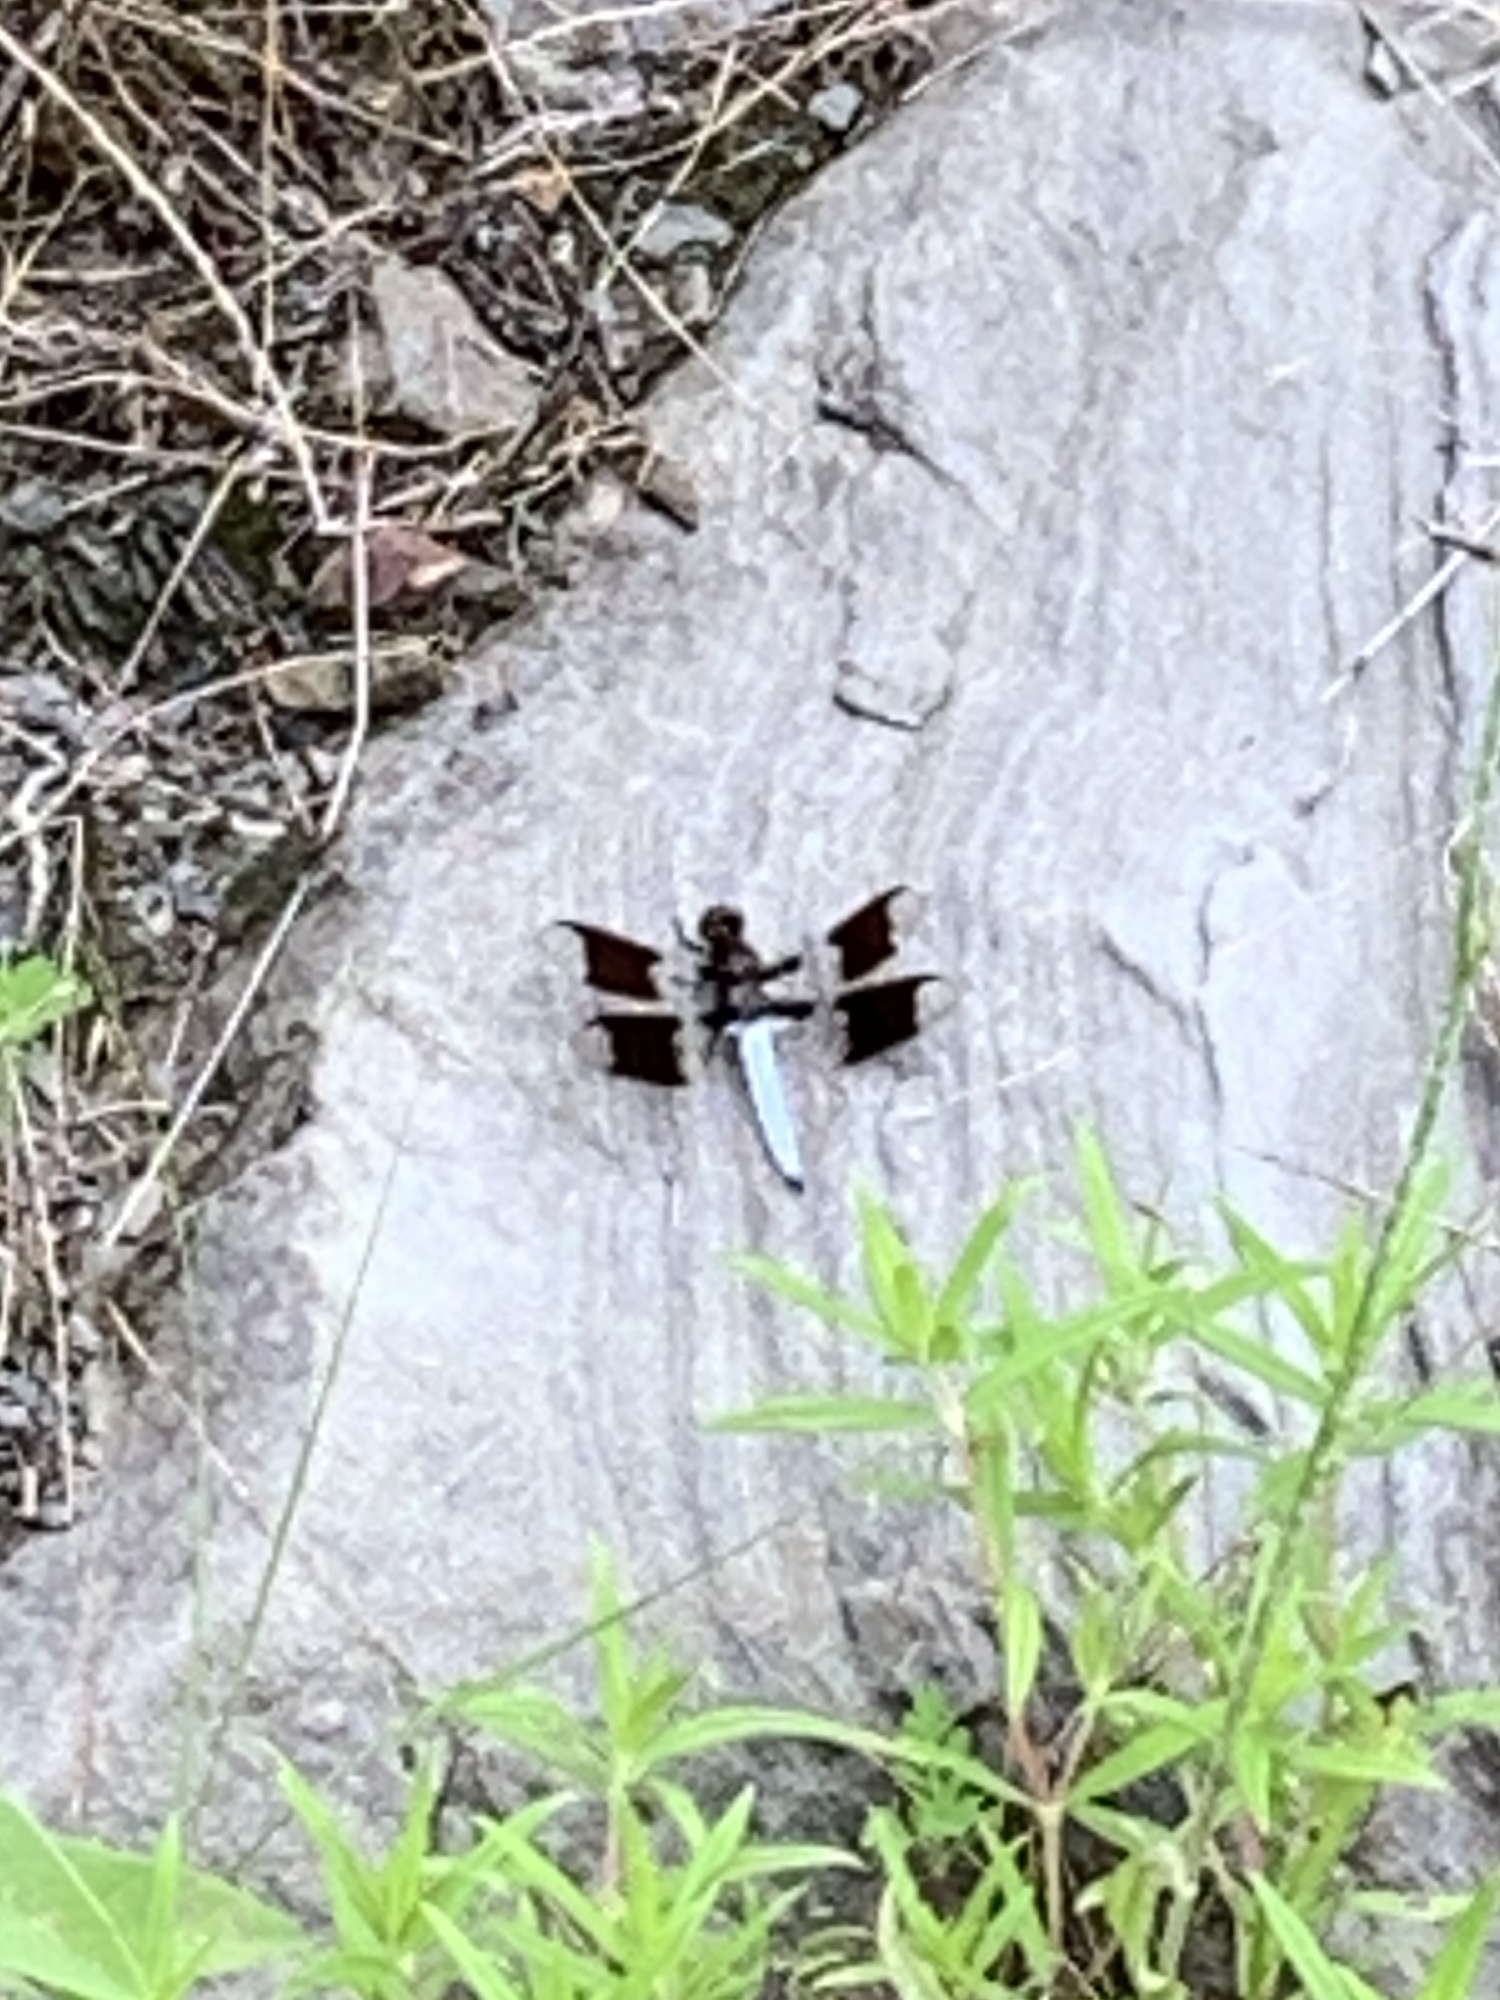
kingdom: Animalia
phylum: Arthropoda
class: Insecta
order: Odonata
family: Libellulidae
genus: Plathemis
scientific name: Plathemis lydia
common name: Common whitetail
